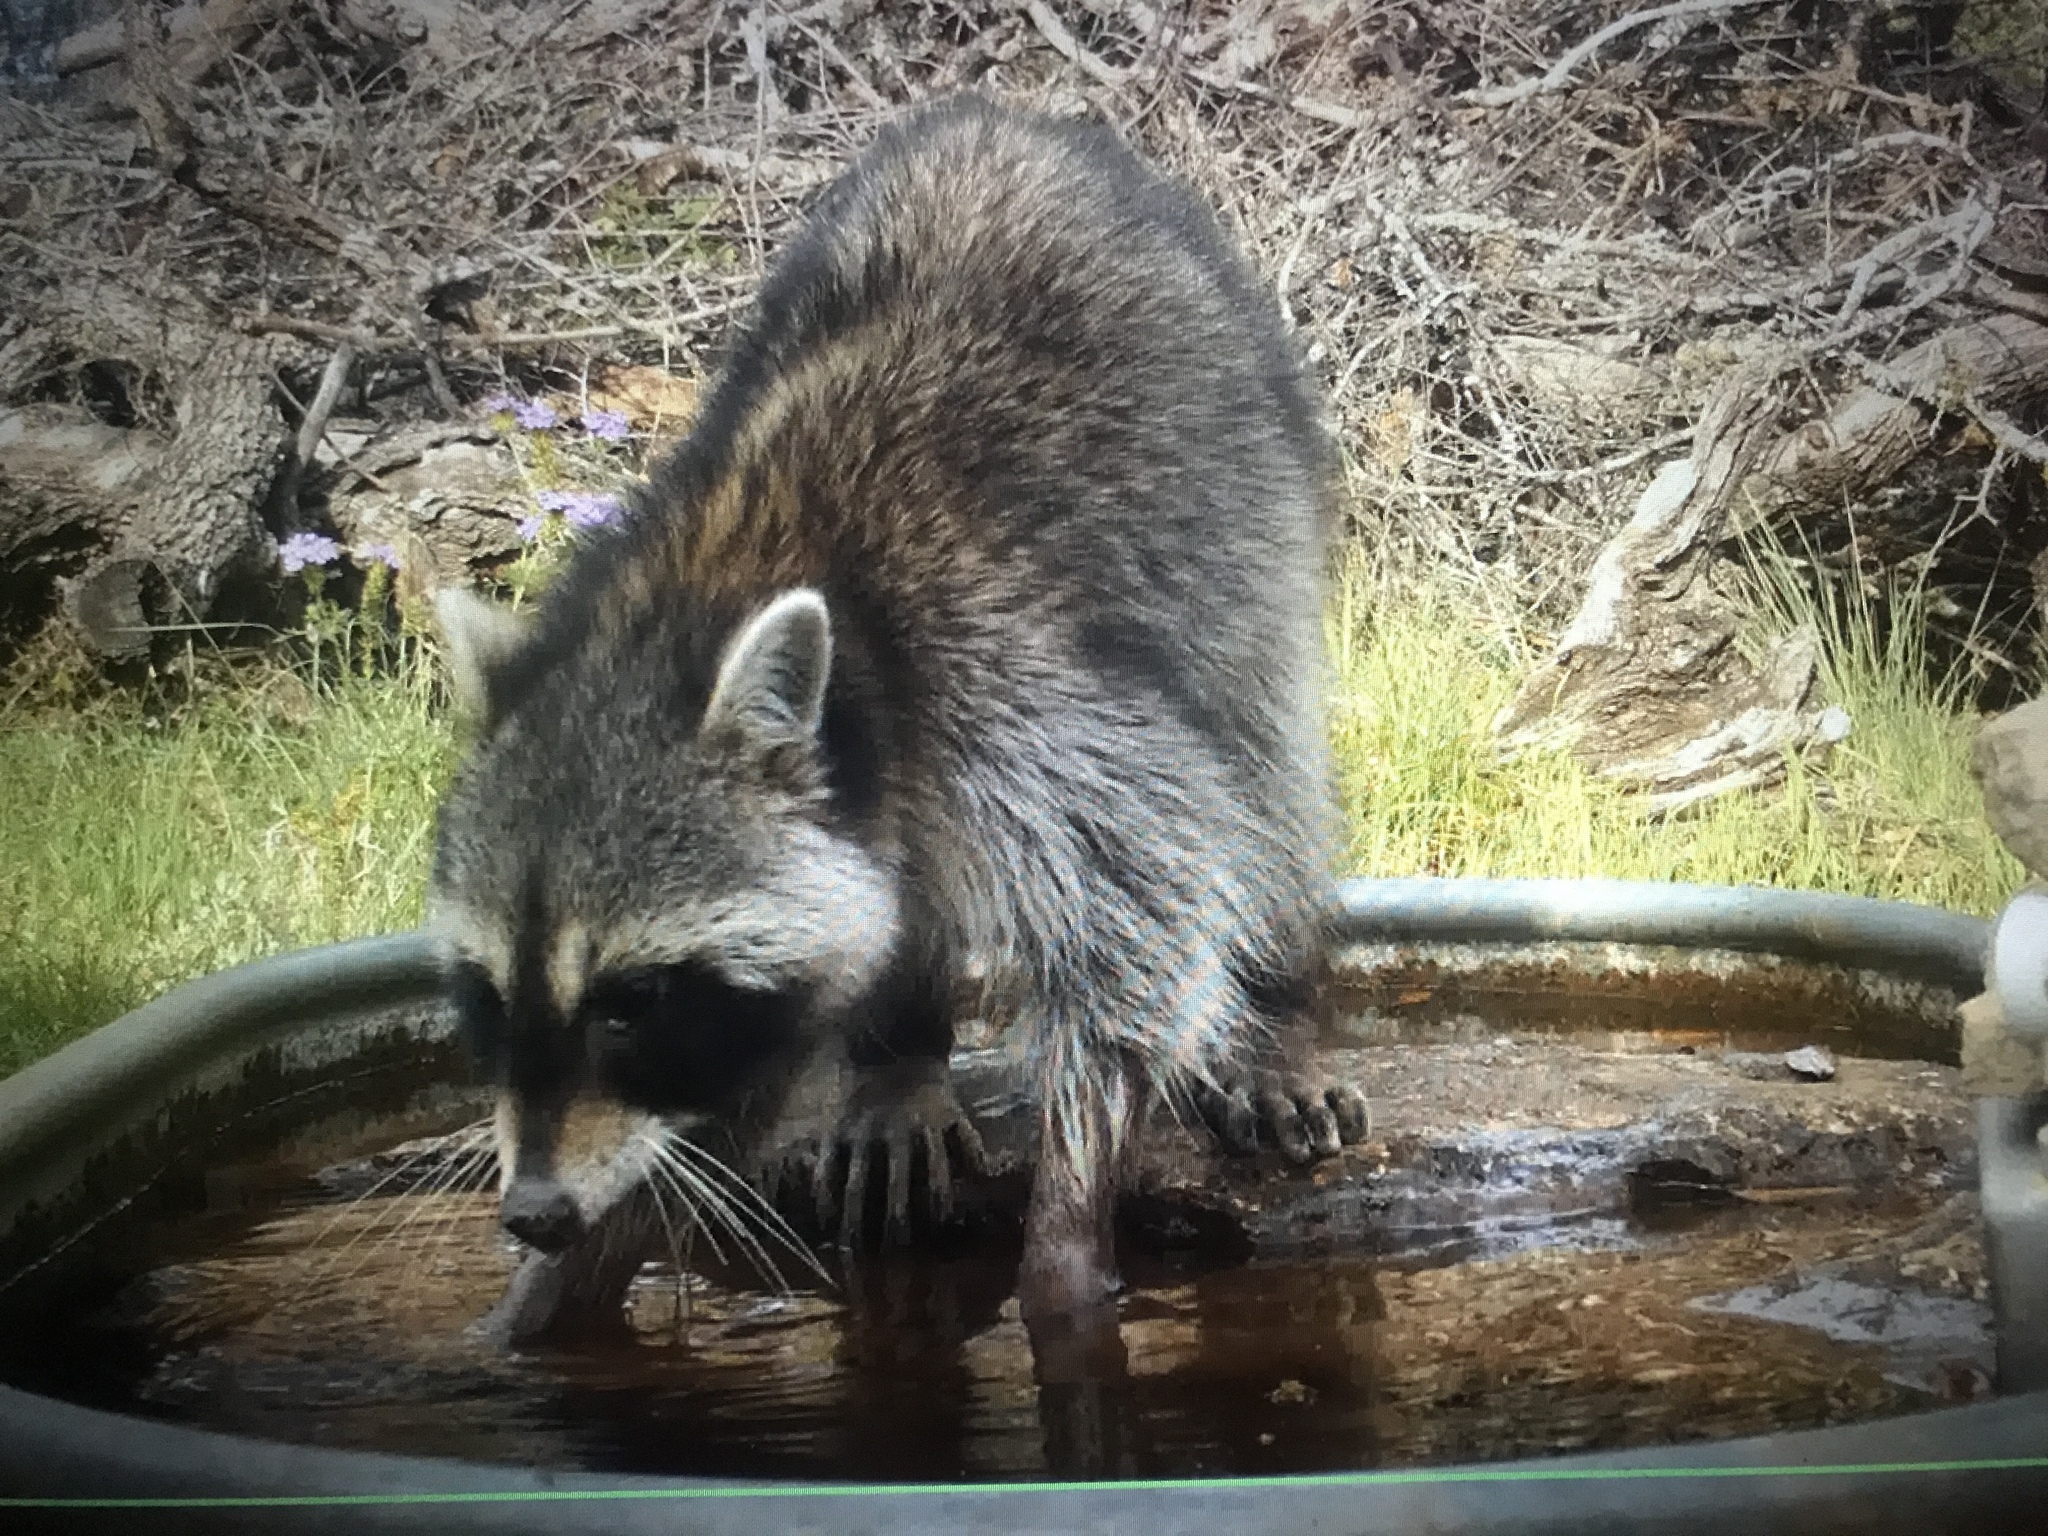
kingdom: Animalia
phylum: Chordata
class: Mammalia
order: Carnivora
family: Procyonidae
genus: Procyon
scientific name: Procyon lotor
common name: Raccoon
